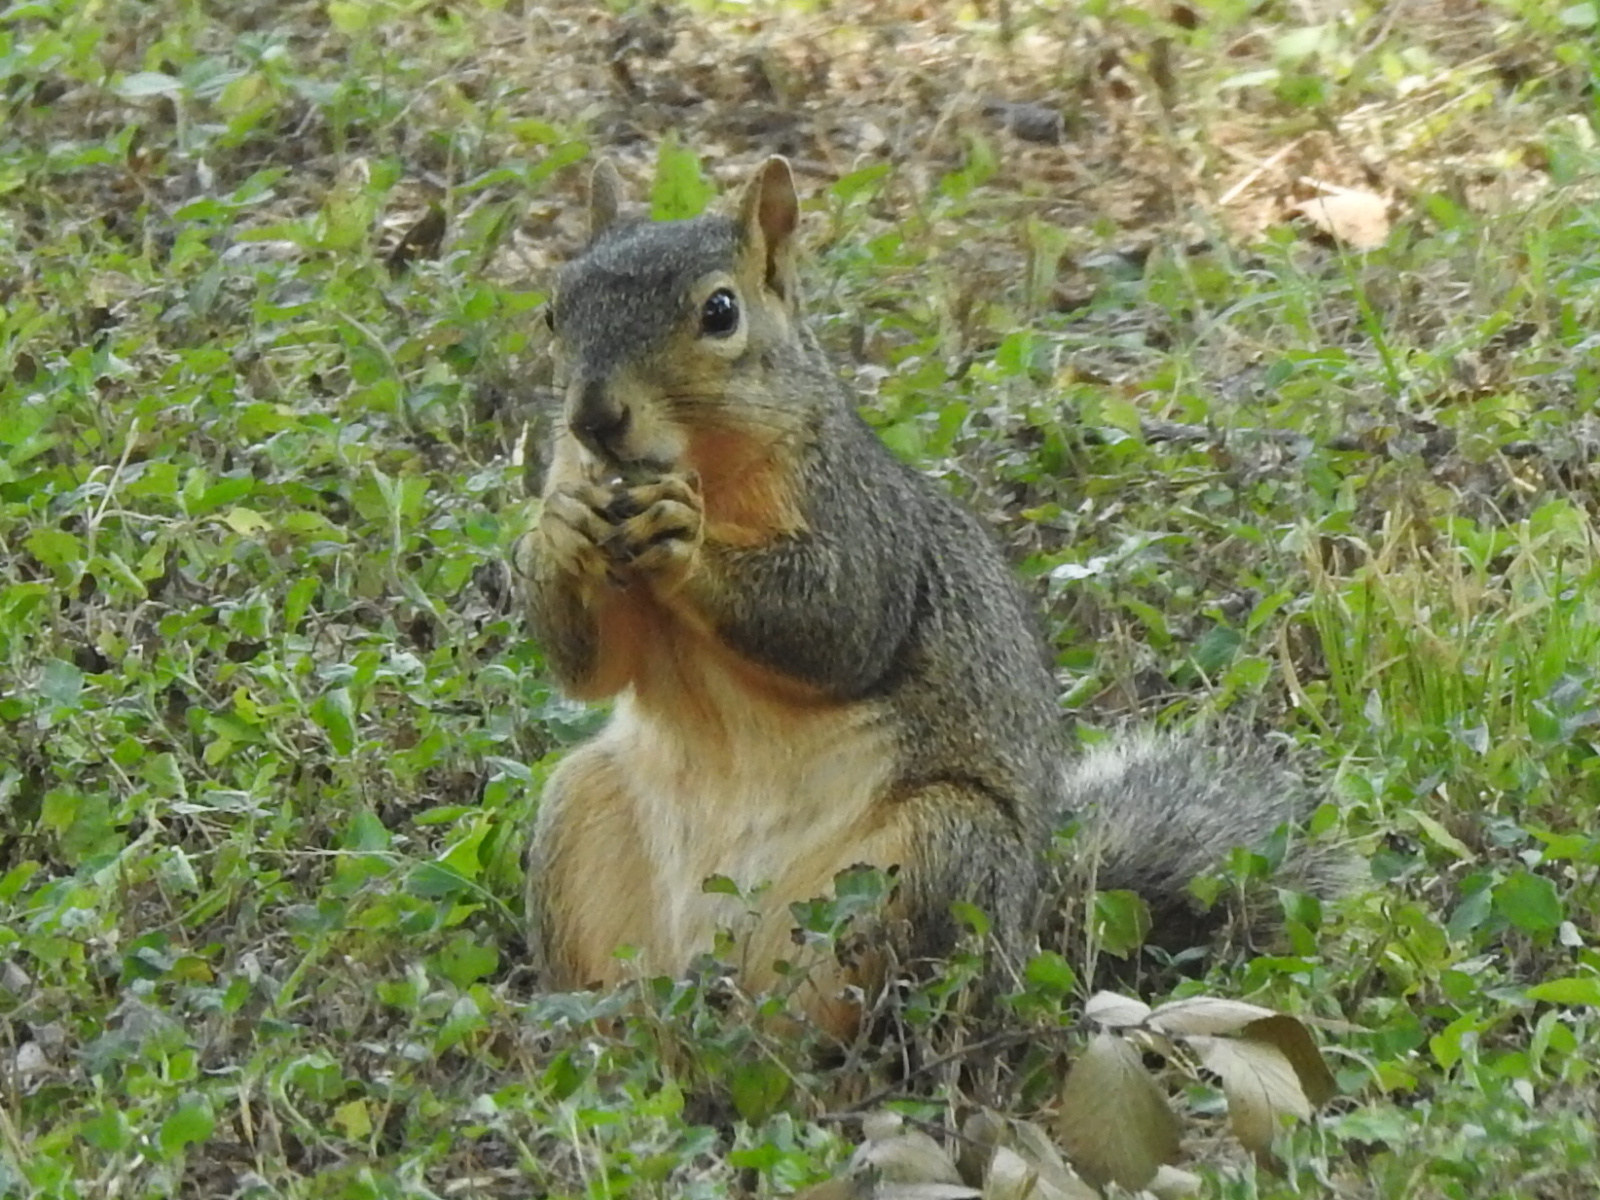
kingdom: Animalia
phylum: Chordata
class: Mammalia
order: Rodentia
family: Sciuridae
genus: Sciurus
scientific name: Sciurus niger
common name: Fox squirrel
